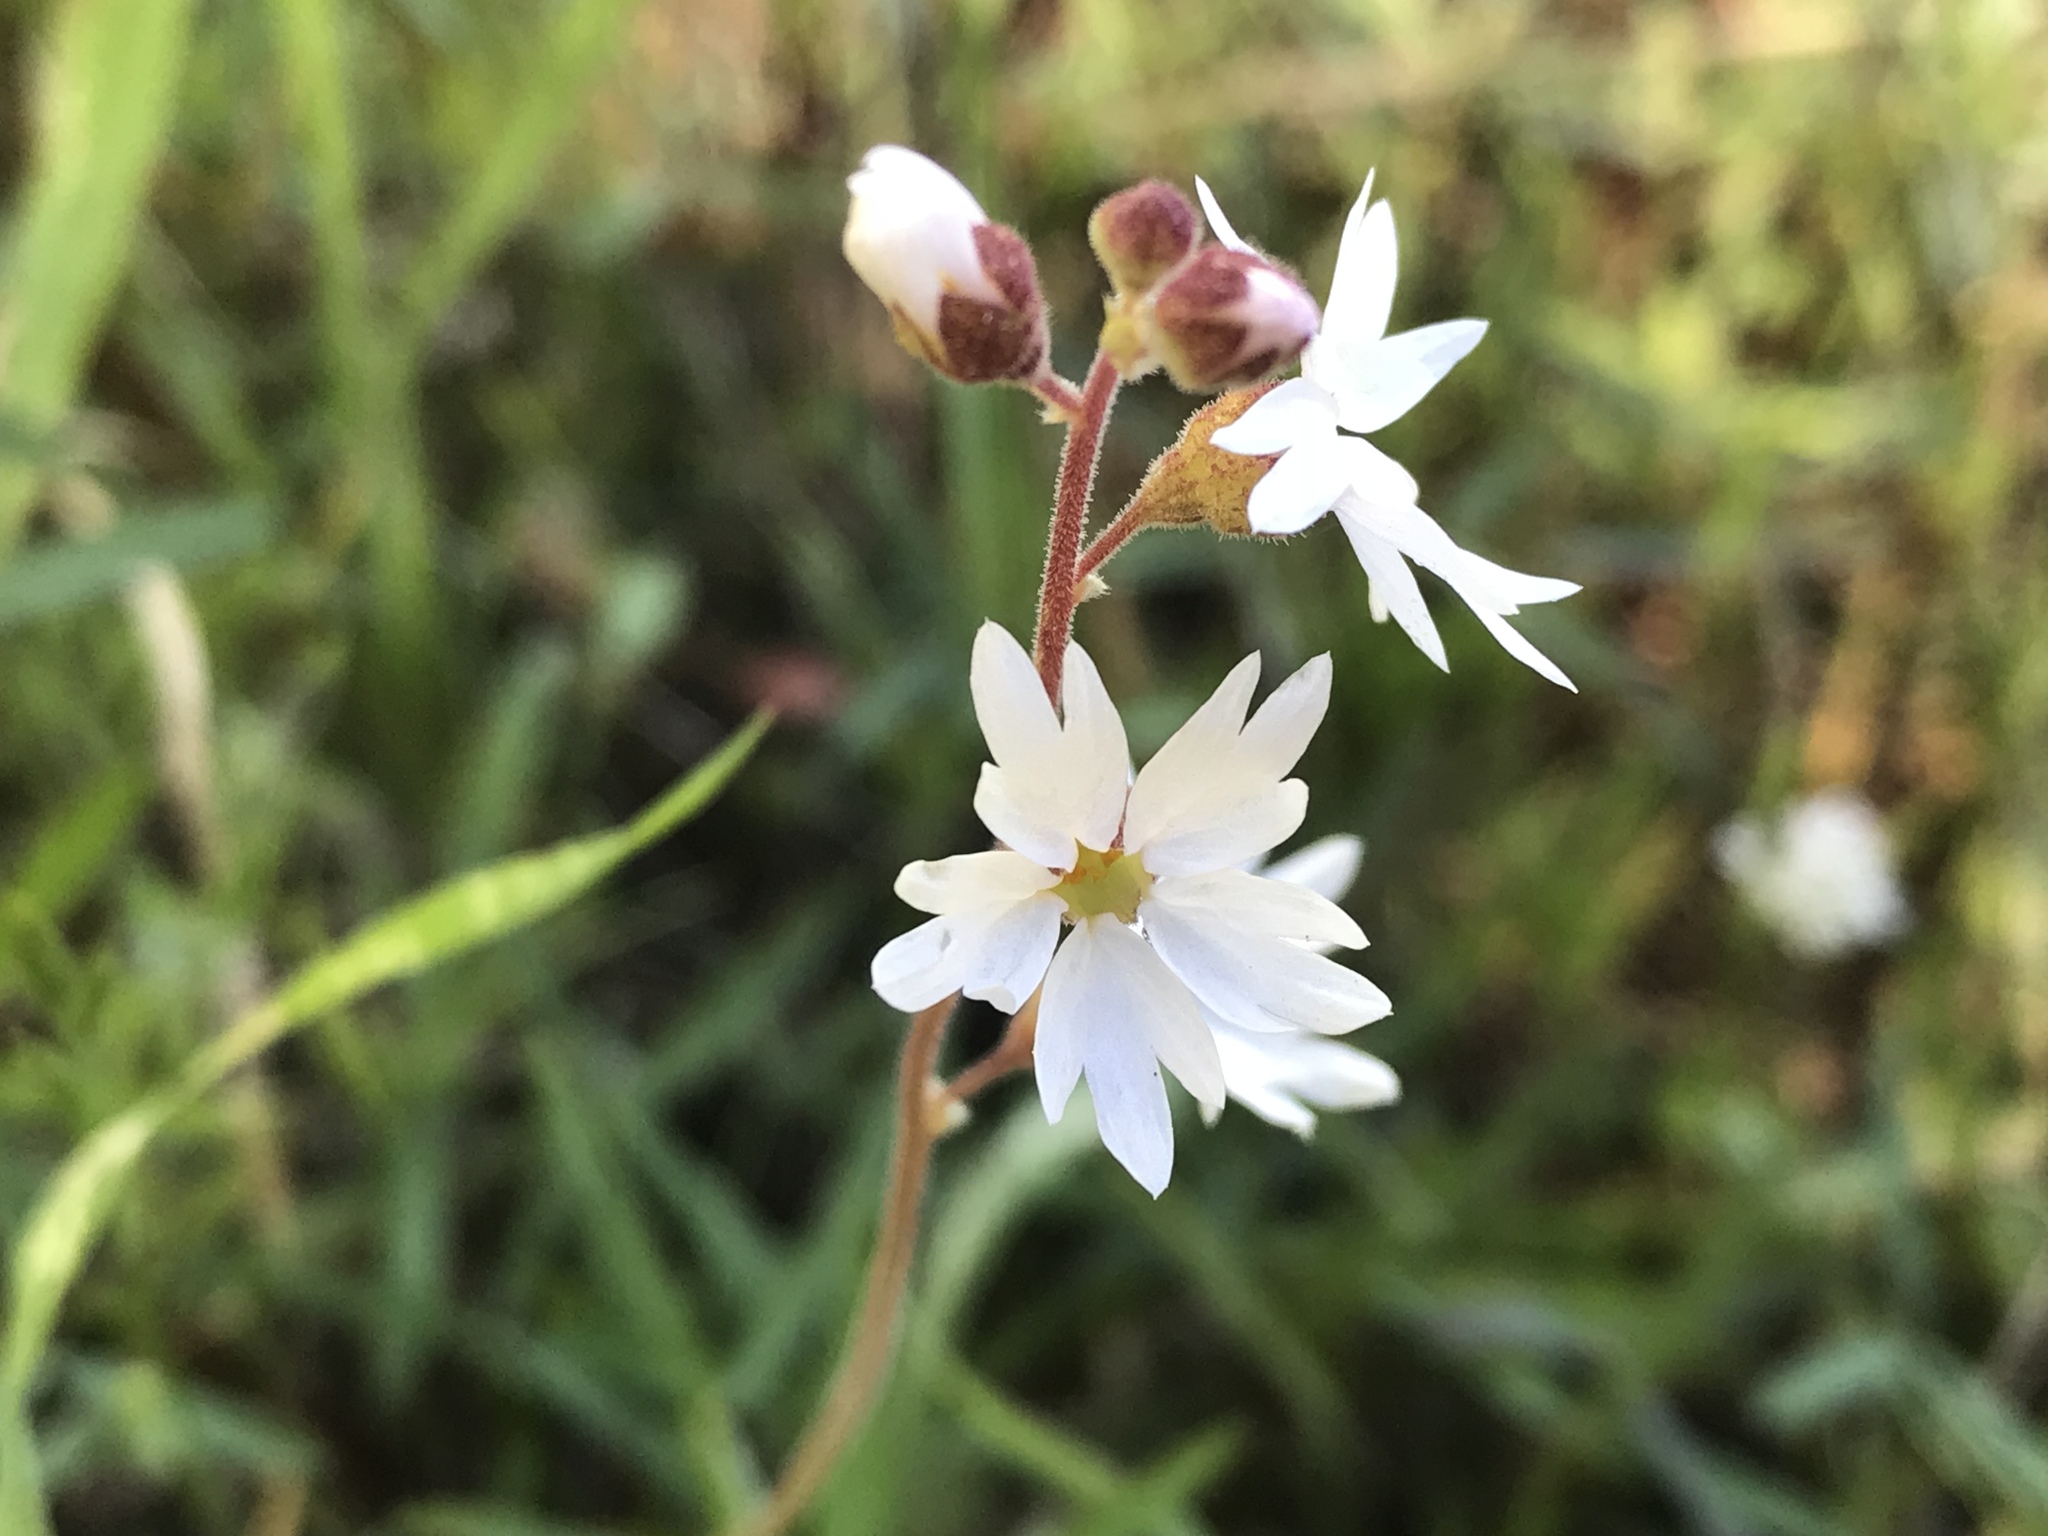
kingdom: Plantae
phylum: Tracheophyta
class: Magnoliopsida
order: Saxifragales
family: Saxifragaceae
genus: Lithophragma
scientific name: Lithophragma affine
